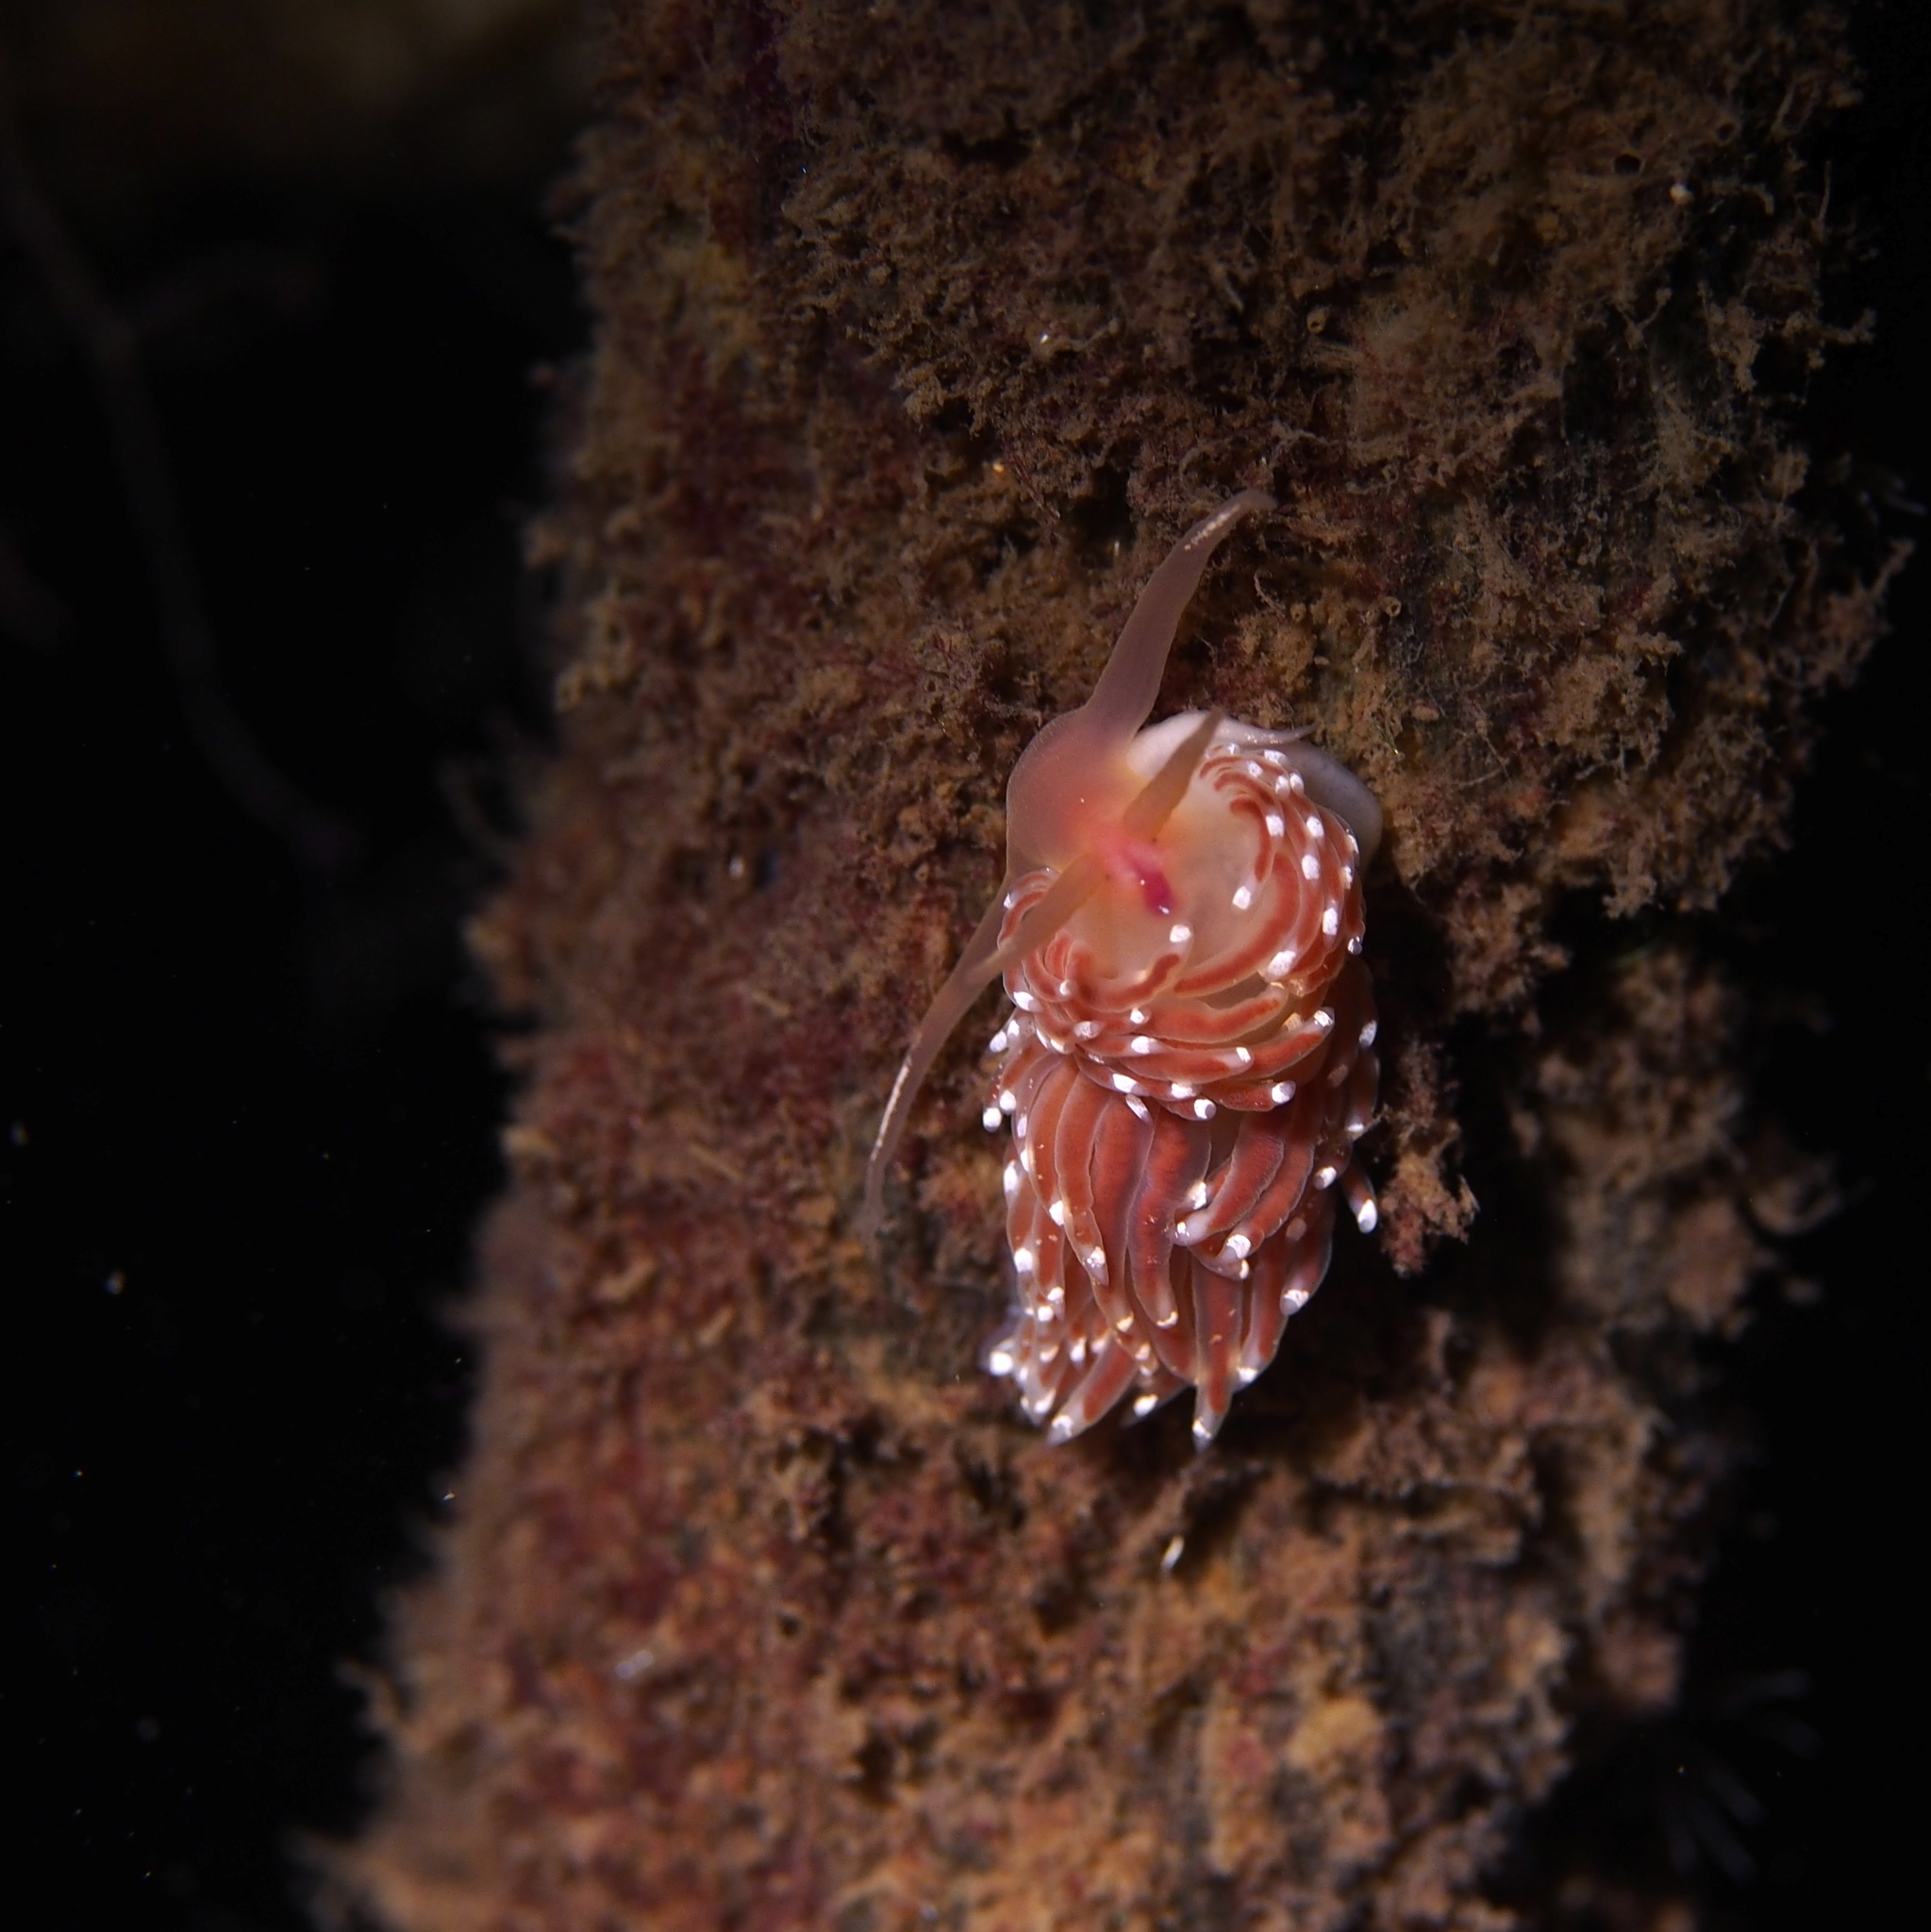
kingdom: Animalia
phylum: Mollusca
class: Gastropoda
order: Nudibranchia
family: Facelinidae
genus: Facelina
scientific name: Facelina bostoniensis
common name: Boston facelina
